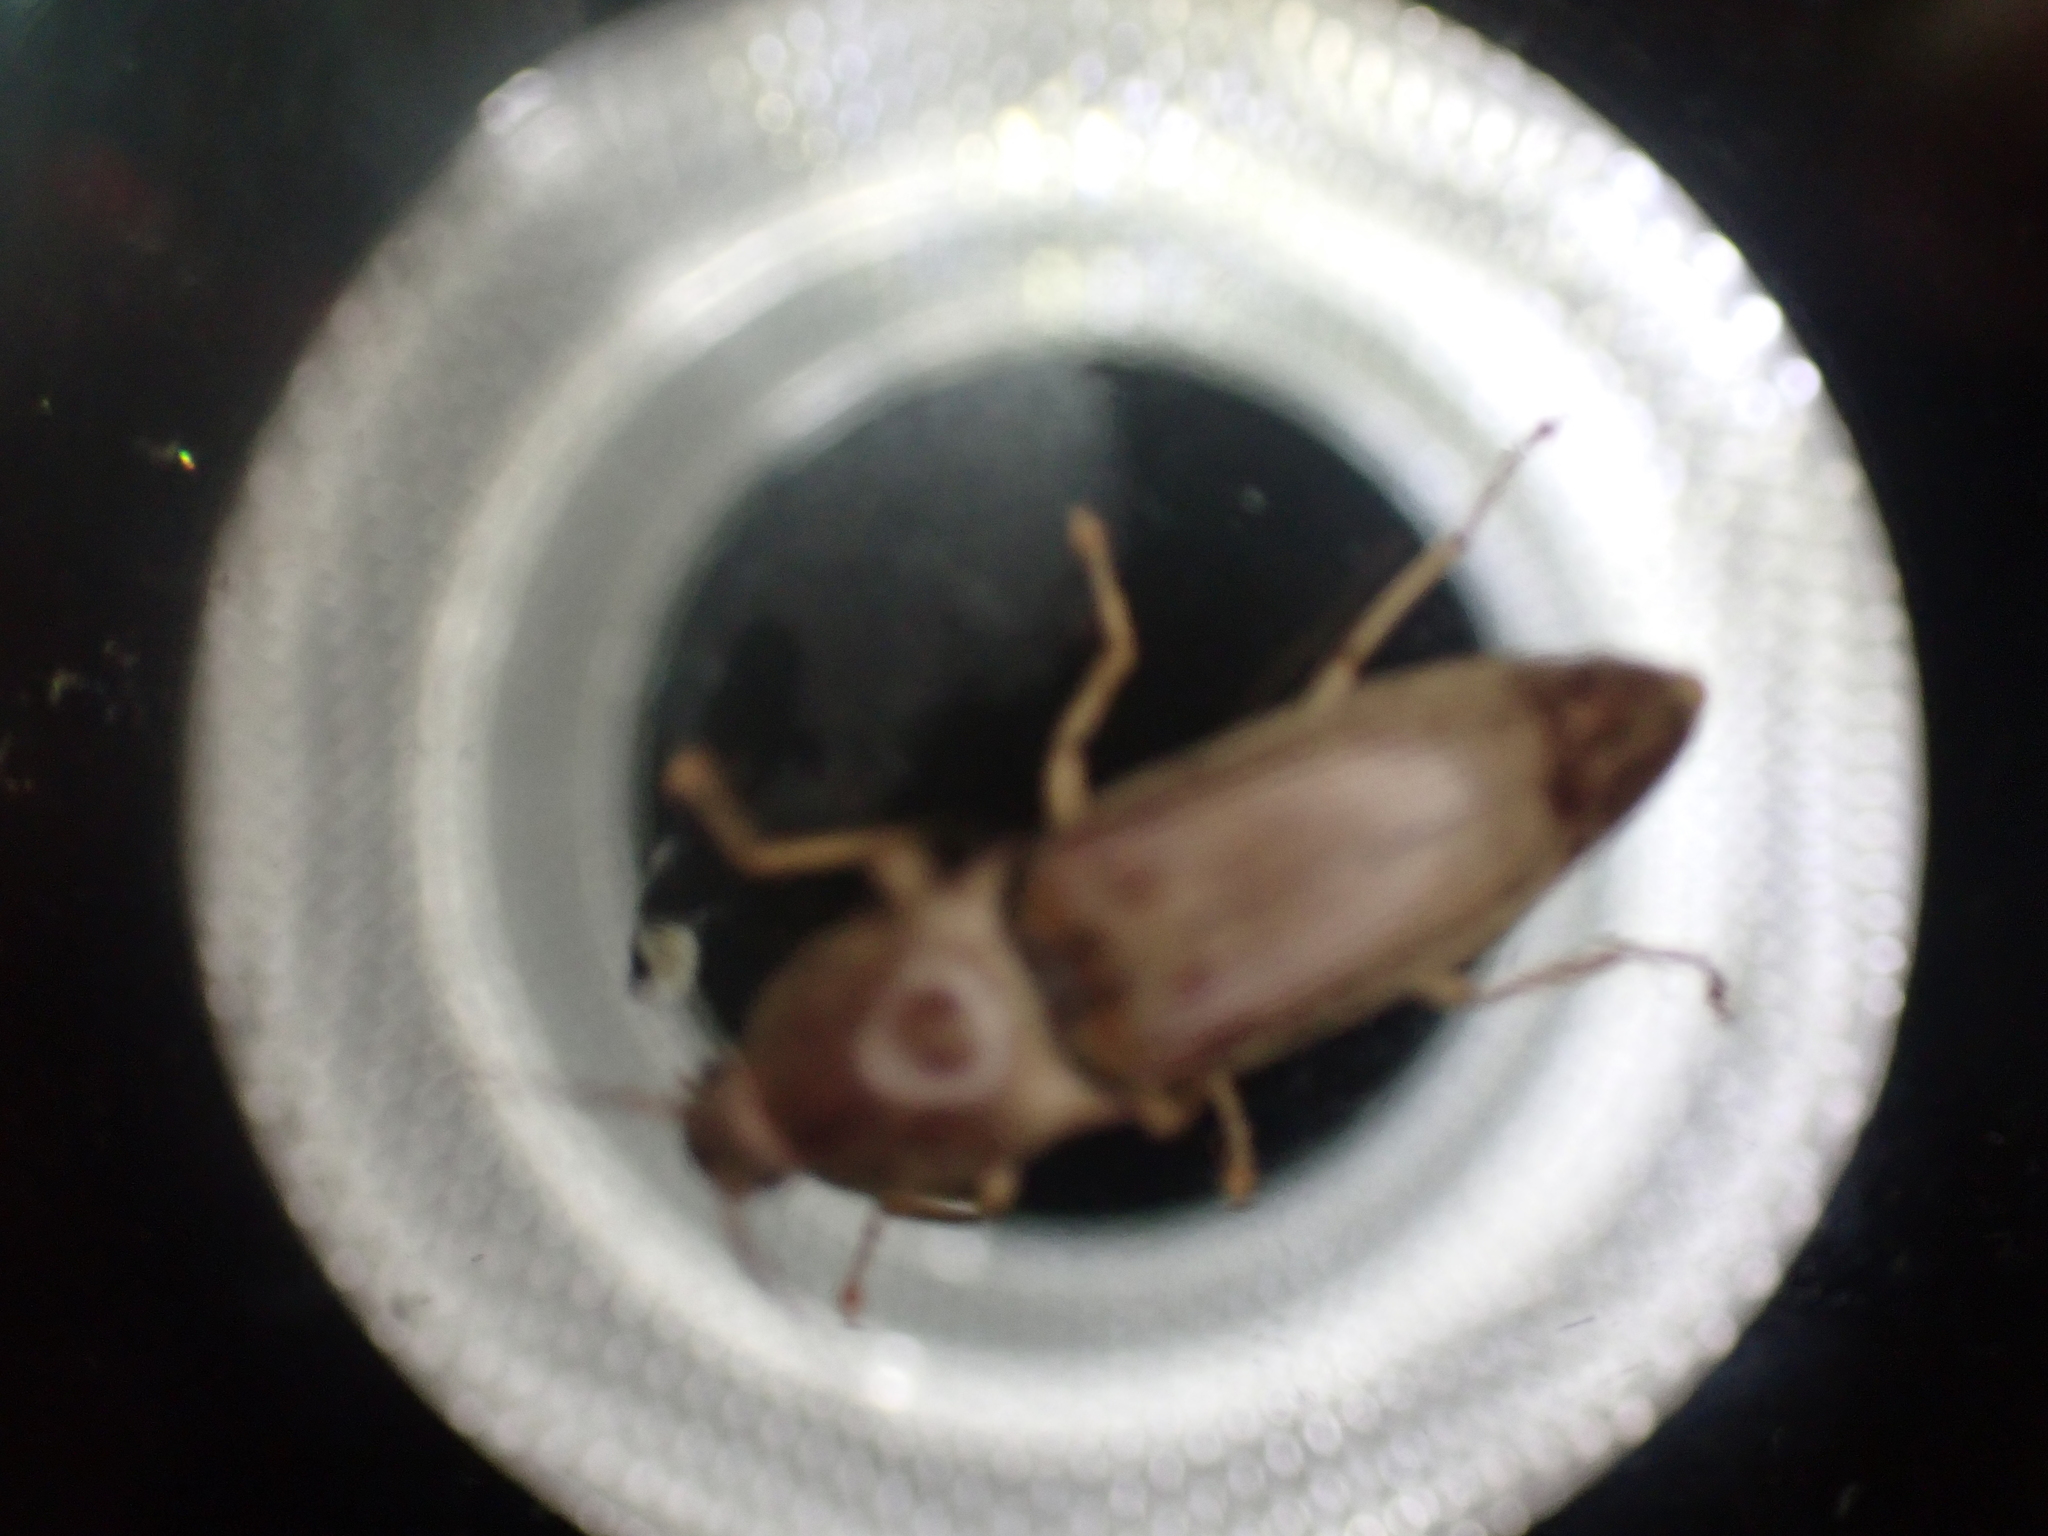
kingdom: Animalia
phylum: Arthropoda
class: Insecta
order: Coleoptera
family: Elateridae
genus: Monocrepidius
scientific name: Monocrepidius lividus
